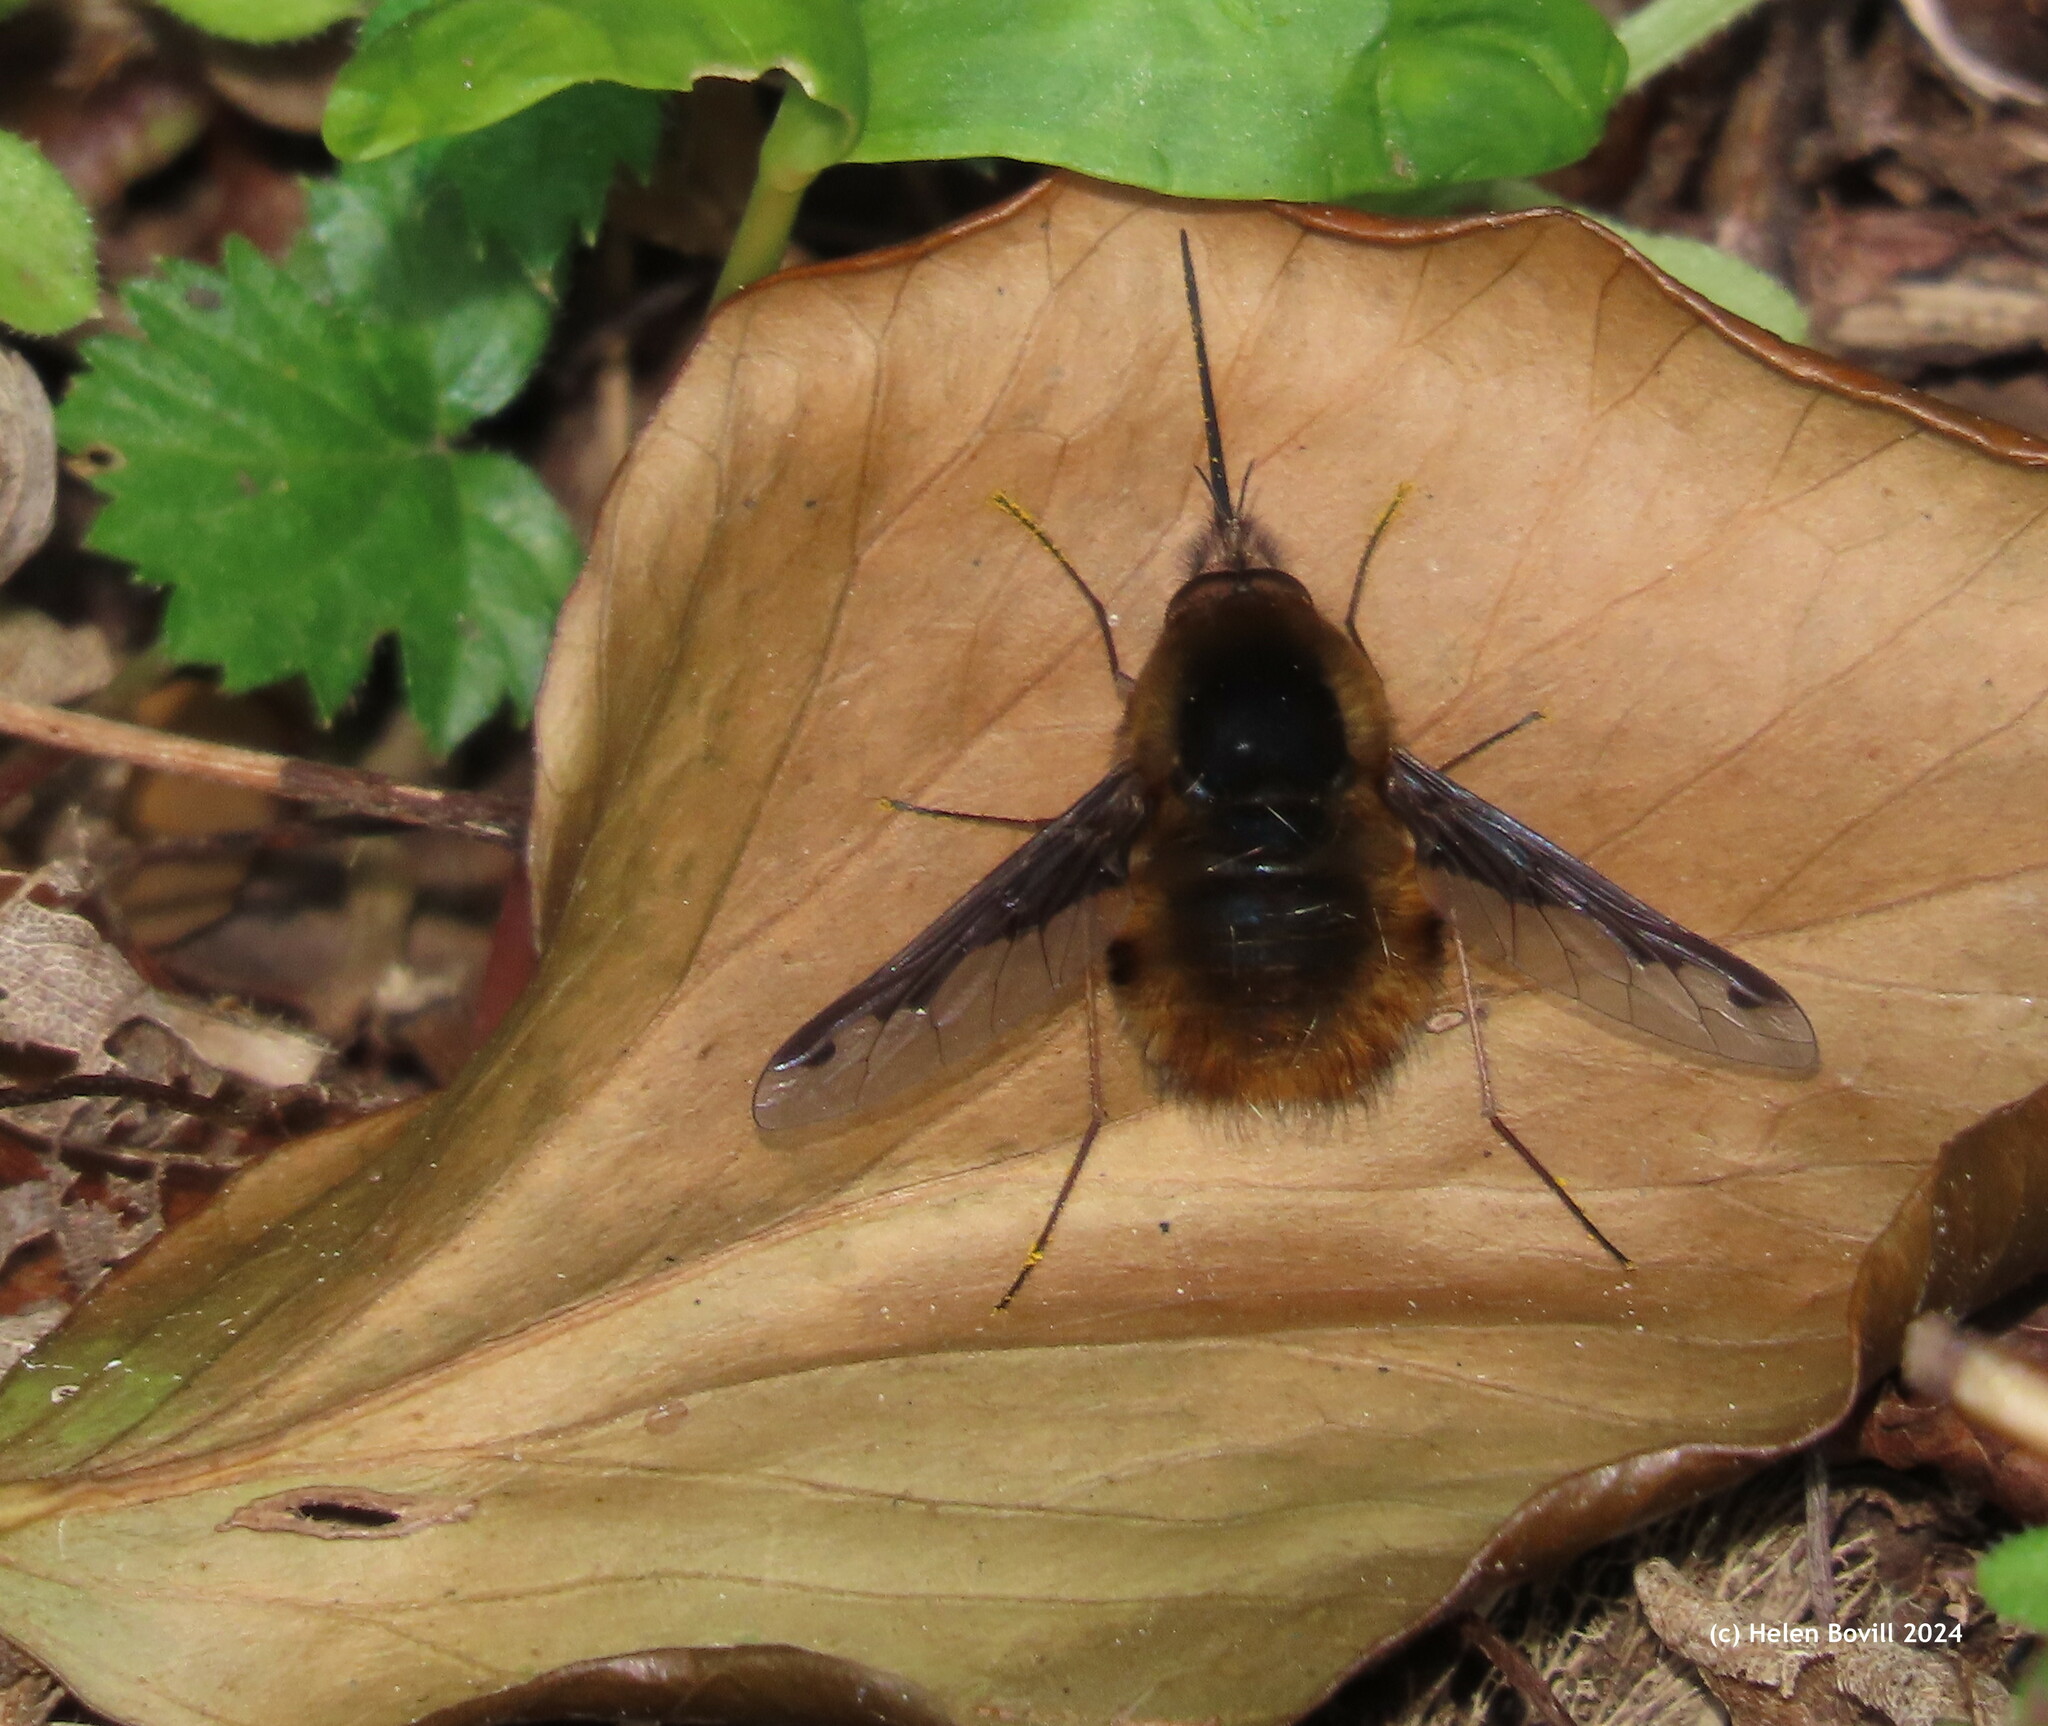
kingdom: Animalia
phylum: Arthropoda
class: Insecta
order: Diptera
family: Bombyliidae
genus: Bombylius
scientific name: Bombylius major
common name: Bee fly
